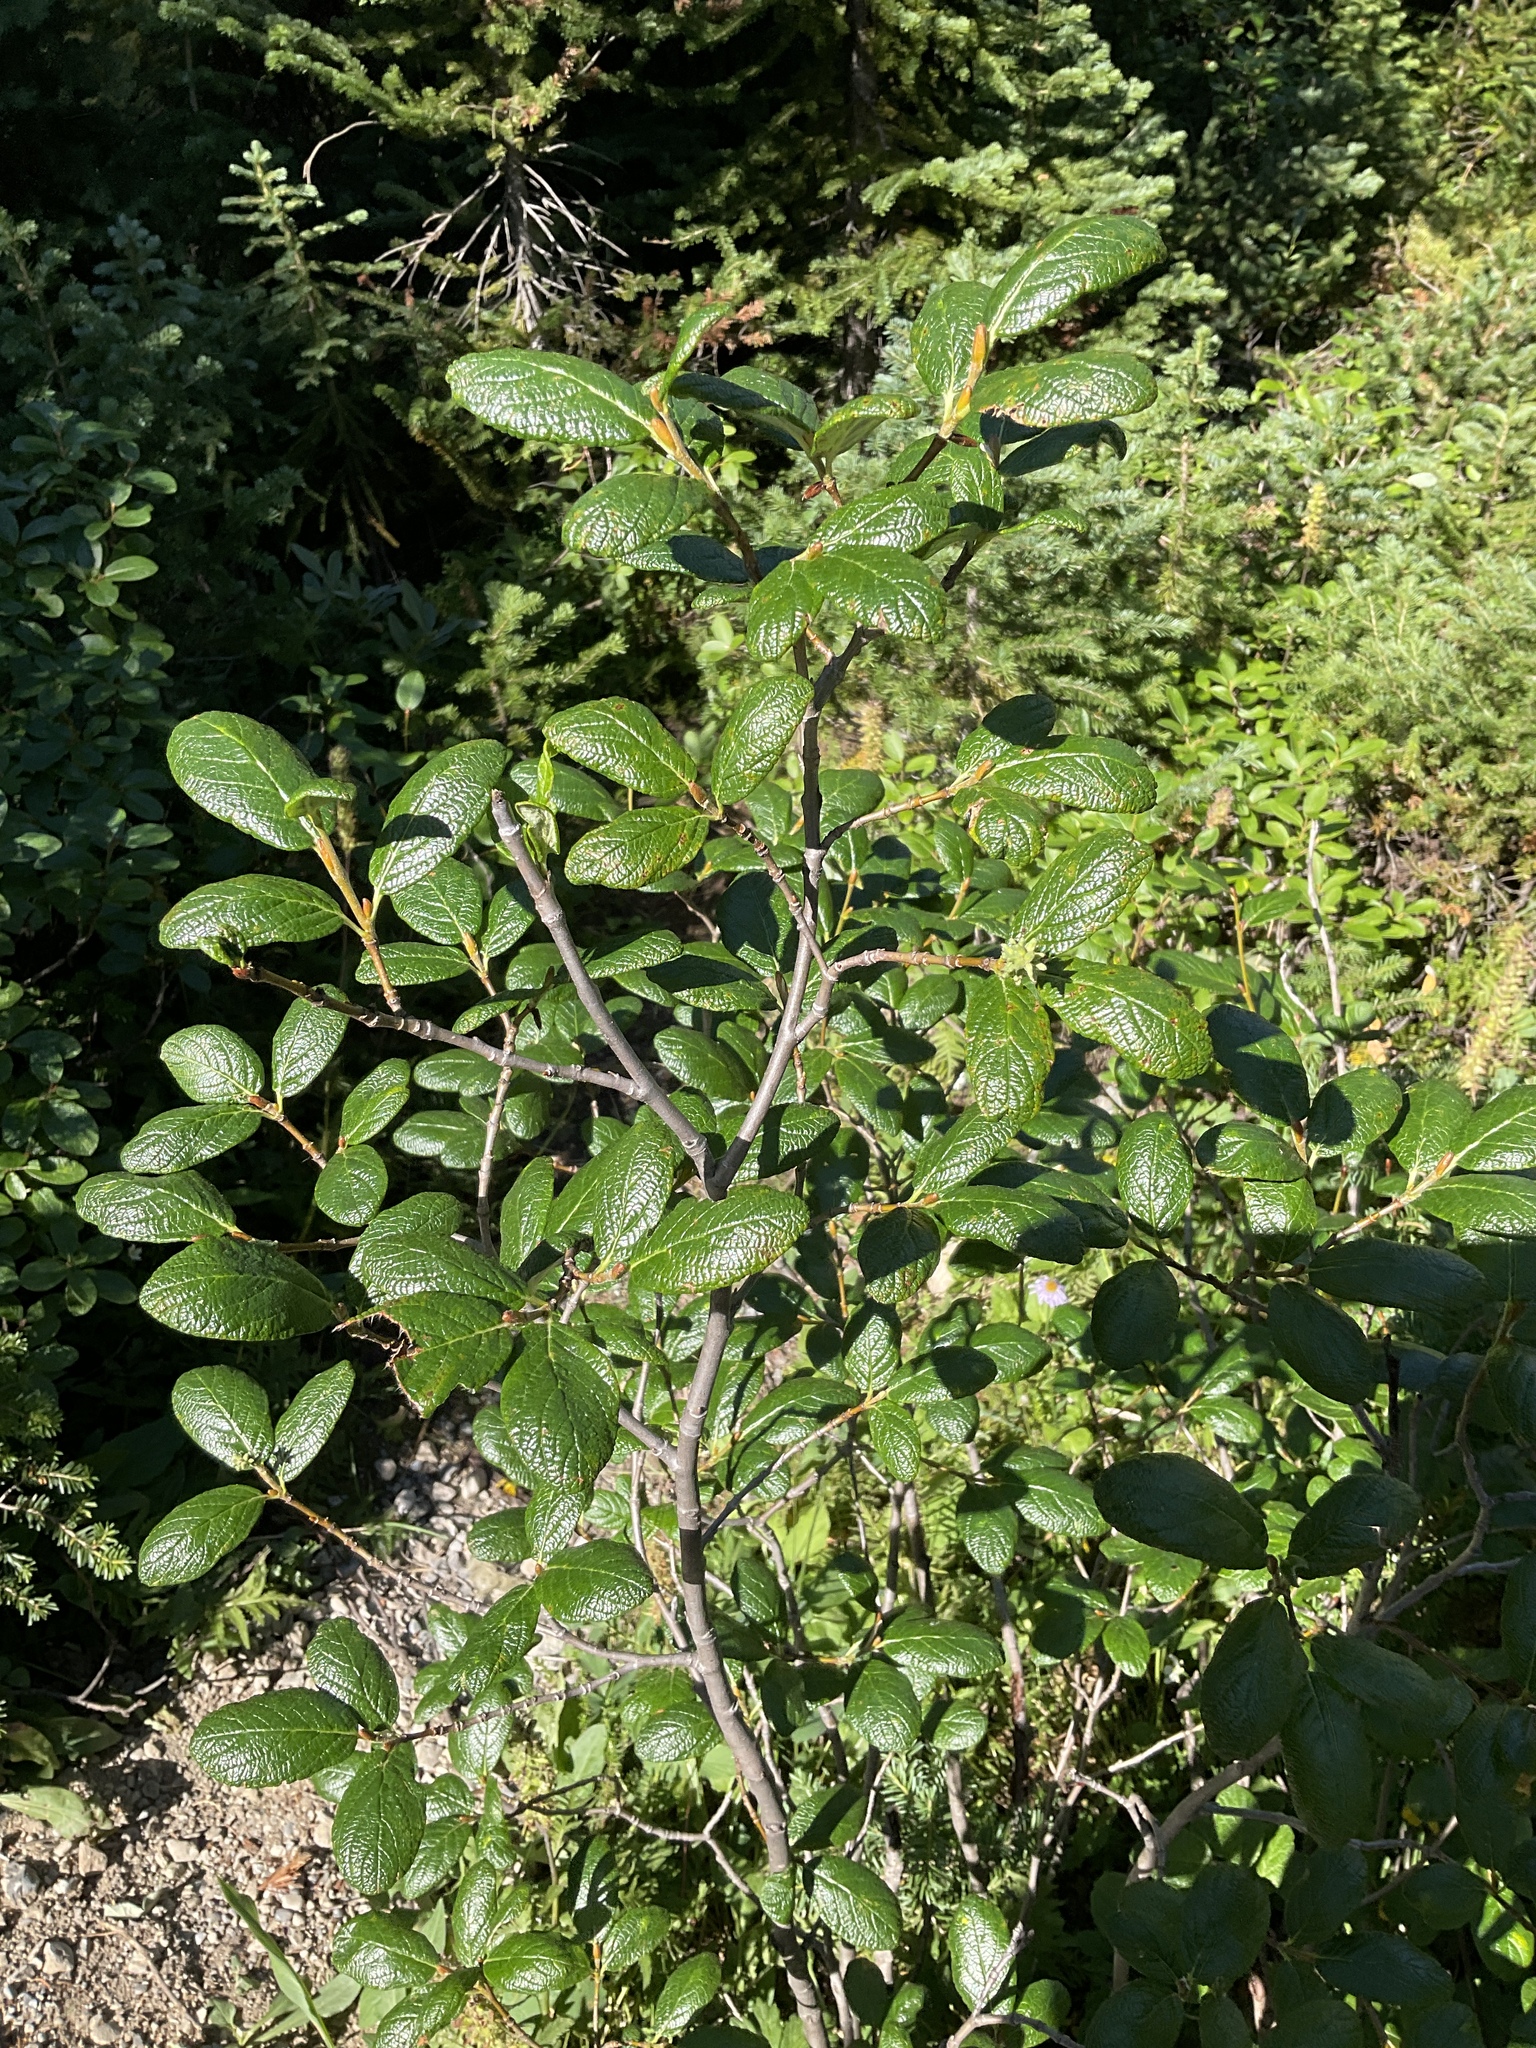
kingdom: Plantae
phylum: Tracheophyta
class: Magnoliopsida
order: Malpighiales
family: Salicaceae
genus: Salix
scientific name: Salix vestita
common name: Hairy willow
